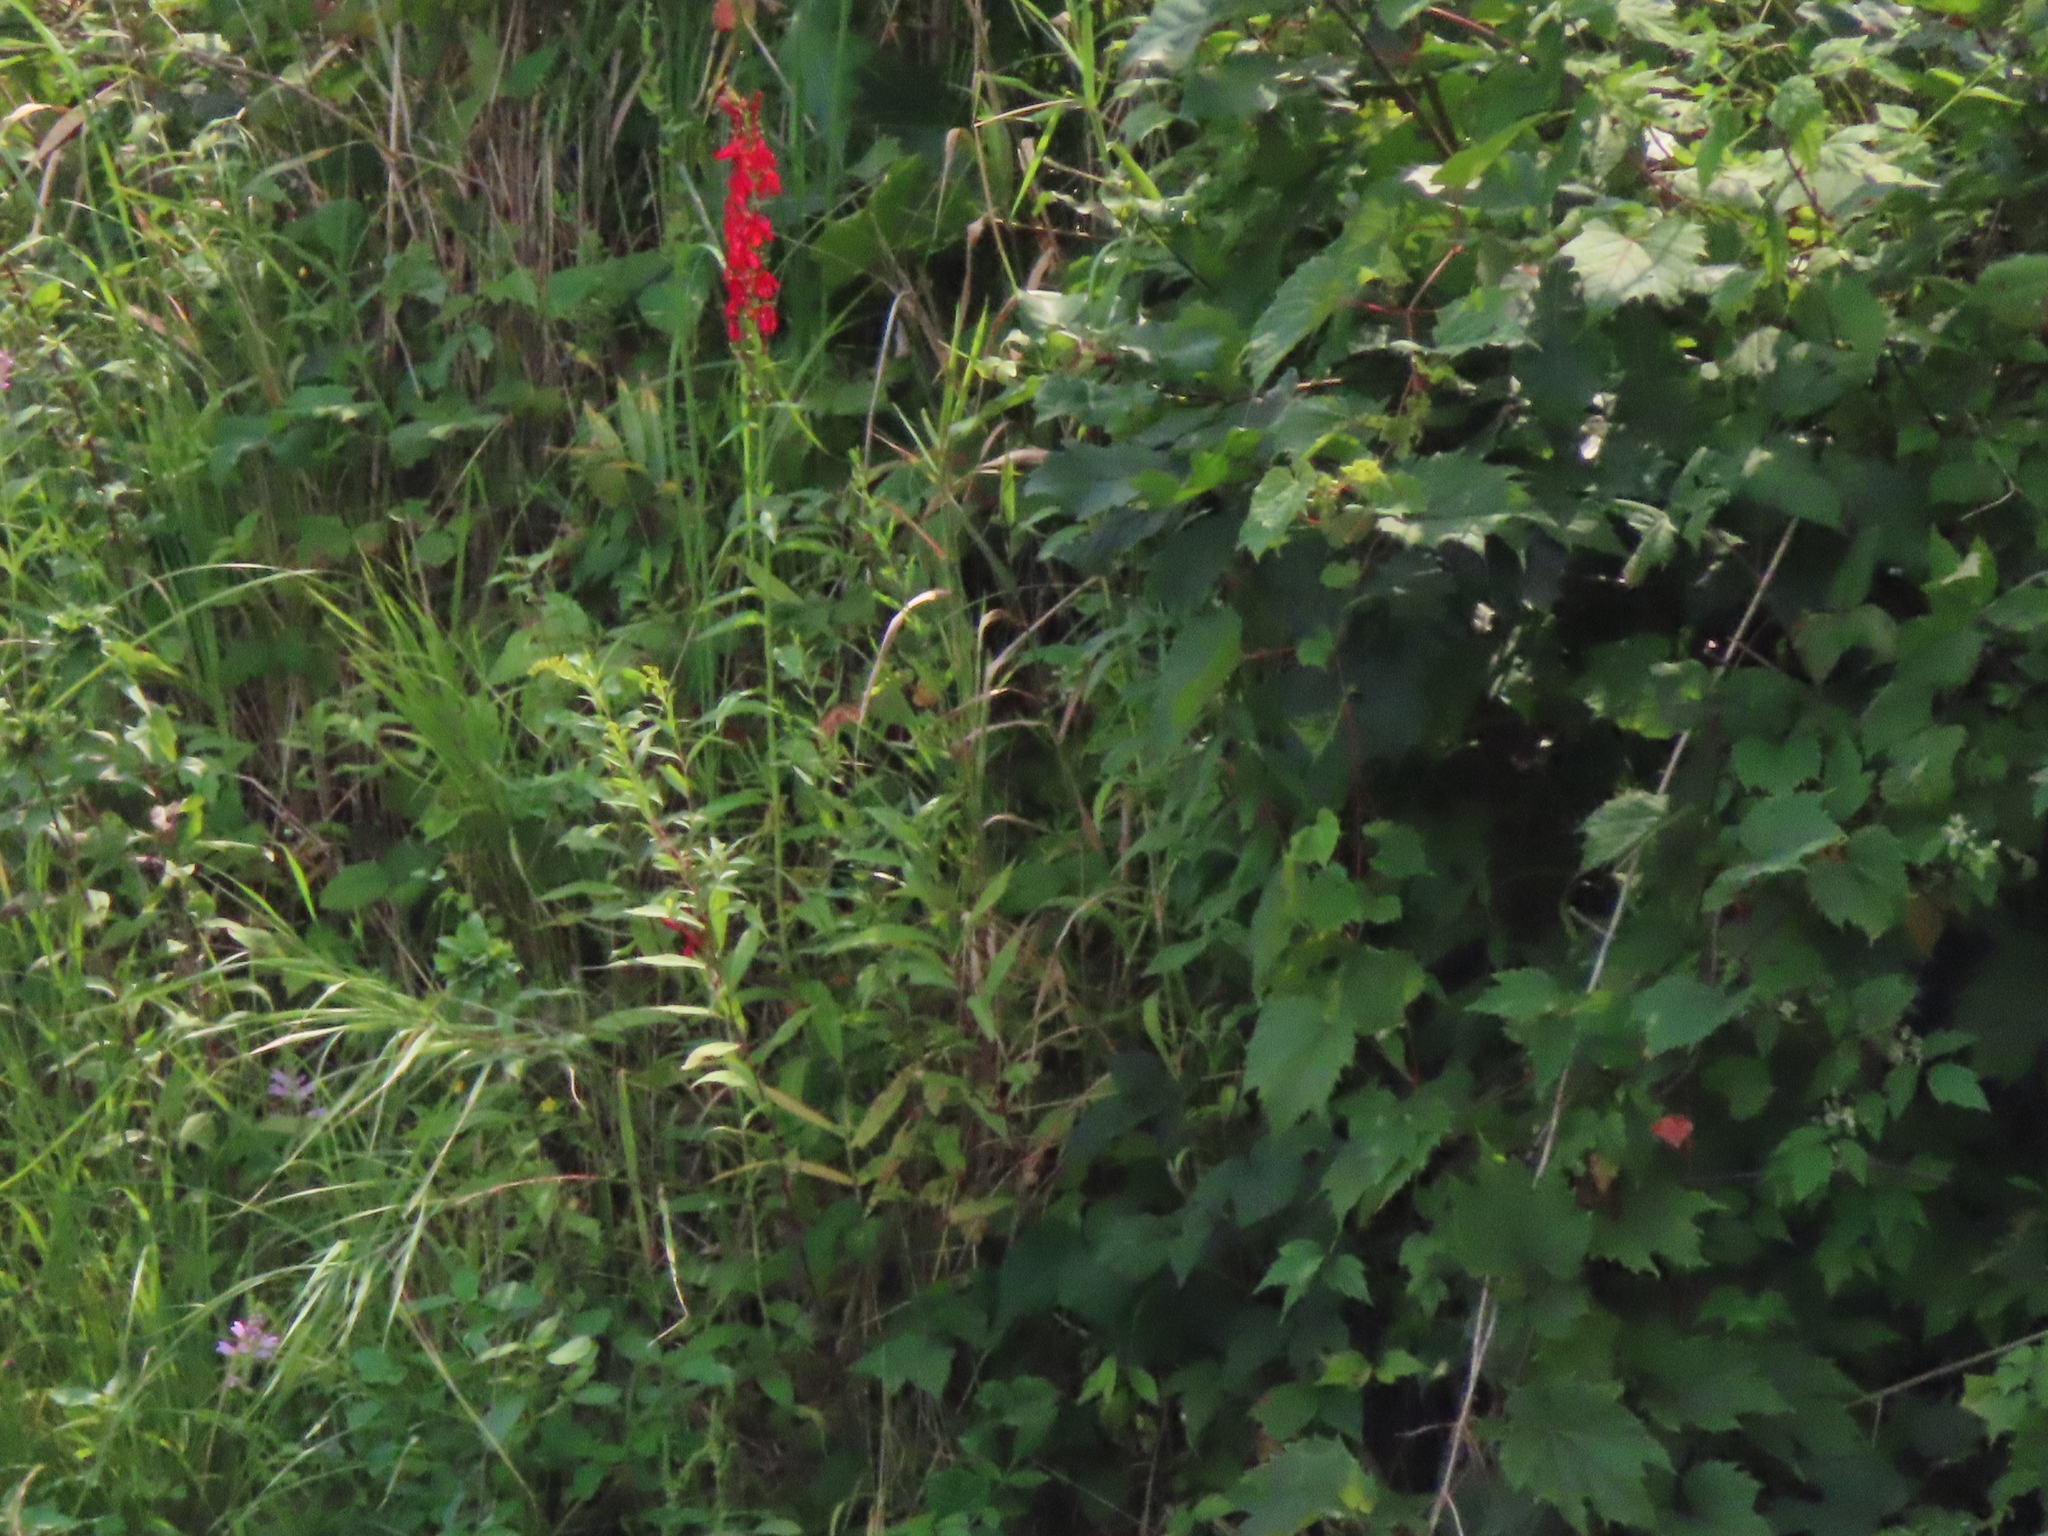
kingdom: Plantae
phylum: Tracheophyta
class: Magnoliopsida
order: Asterales
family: Campanulaceae
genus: Lobelia
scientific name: Lobelia cardinalis
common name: Cardinal flower
